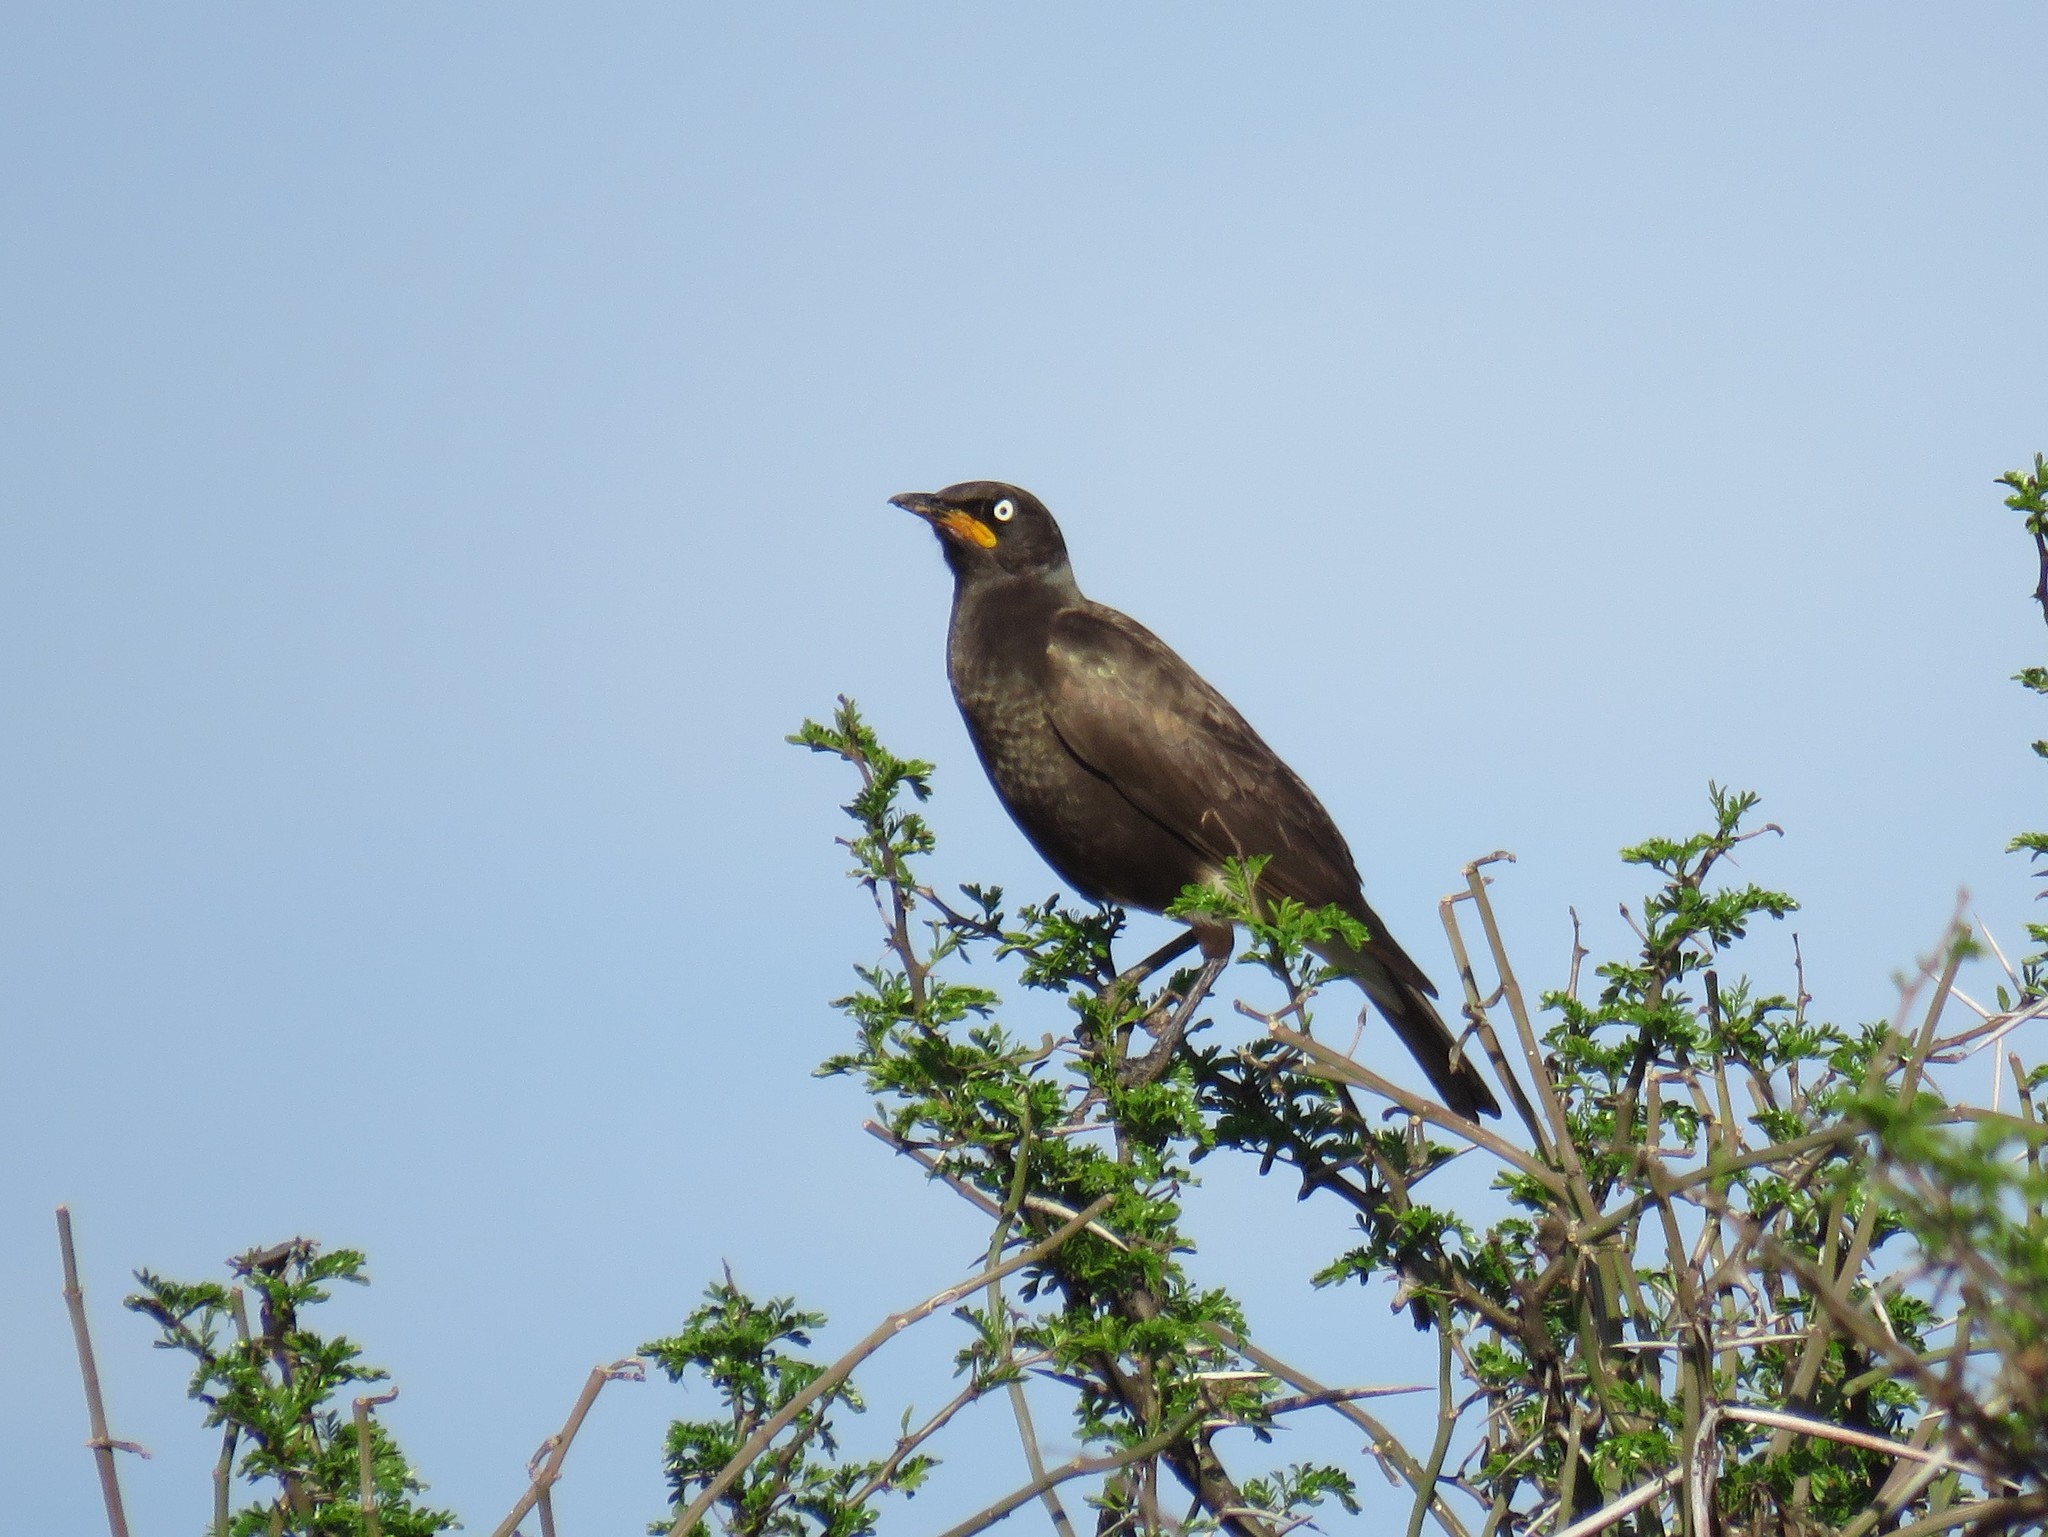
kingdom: Animalia
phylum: Chordata
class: Aves
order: Passeriformes
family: Sturnidae
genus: Lamprotornis
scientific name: Lamprotornis bicolor
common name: Pied starling
